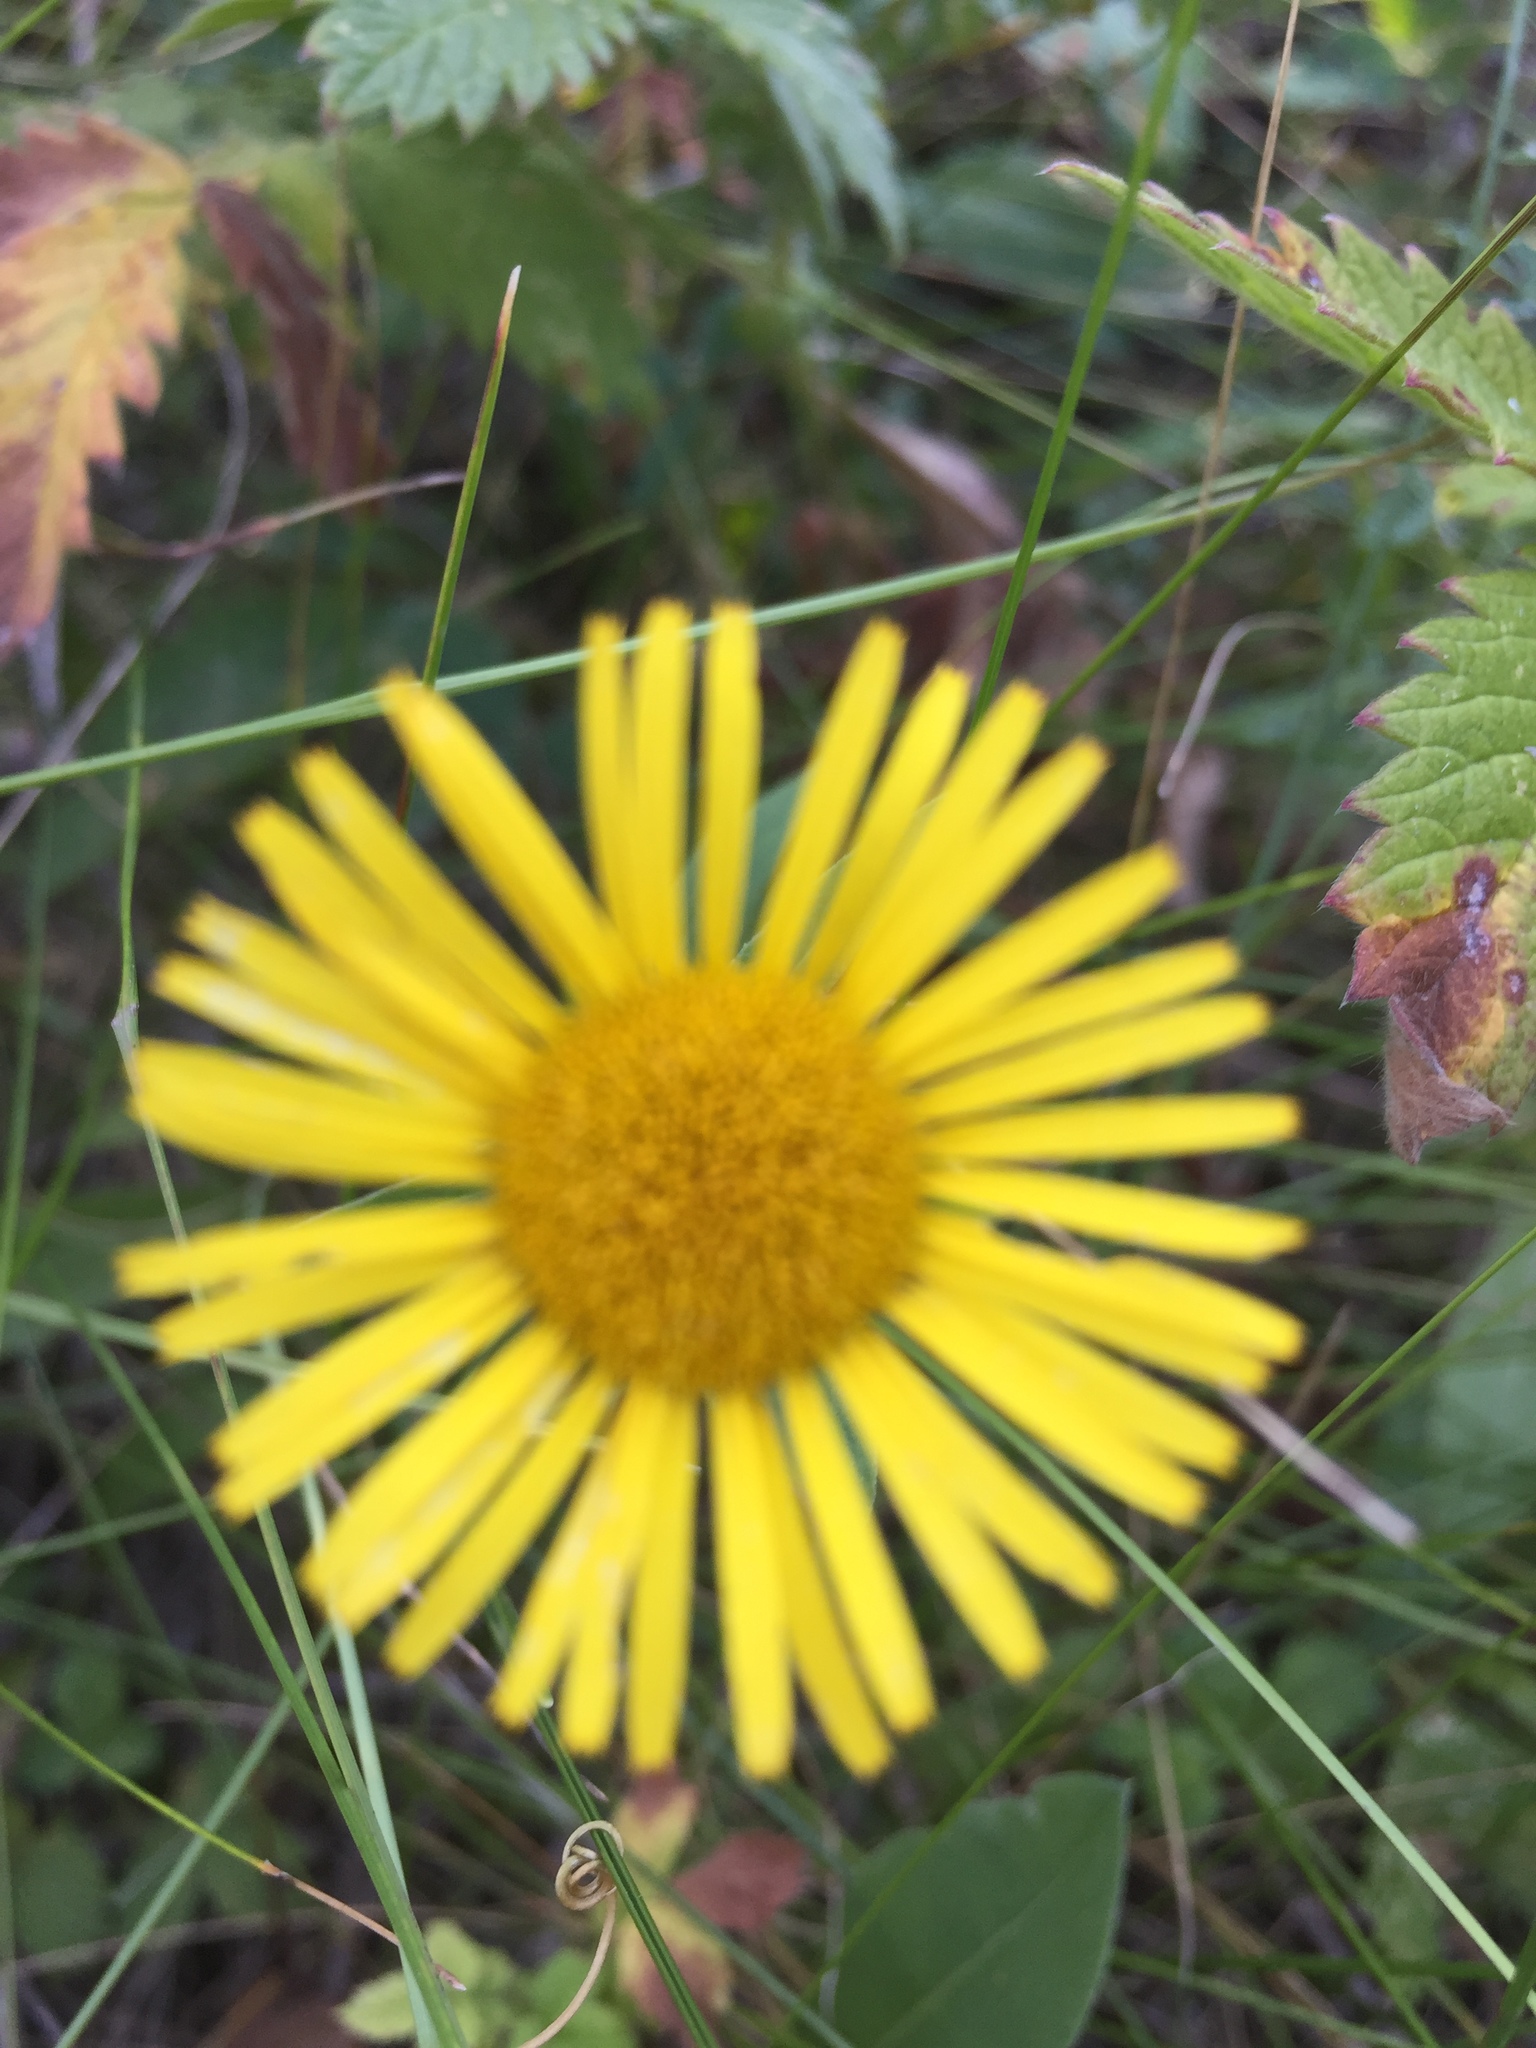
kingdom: Plantae
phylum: Tracheophyta
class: Magnoliopsida
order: Asterales
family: Asteraceae
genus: Pentanema
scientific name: Pentanema britannicum
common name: British elecampane
